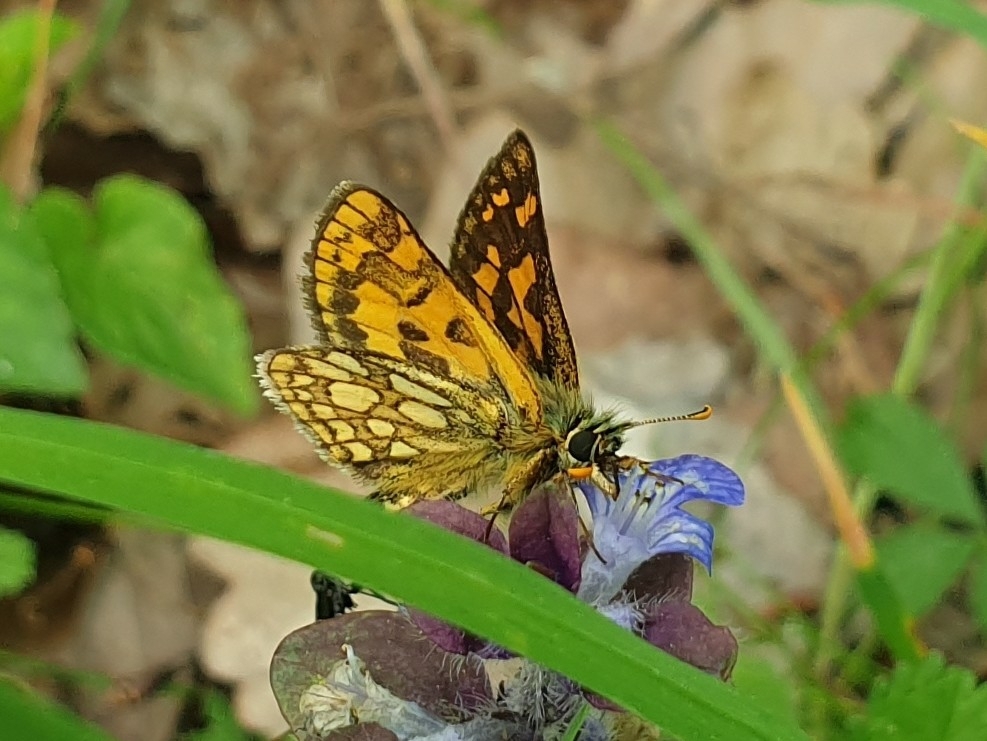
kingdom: Animalia
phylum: Arthropoda
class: Insecta
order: Lepidoptera
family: Hesperiidae
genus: Carterocephalus
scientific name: Carterocephalus palaemon
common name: Chequered skipper
